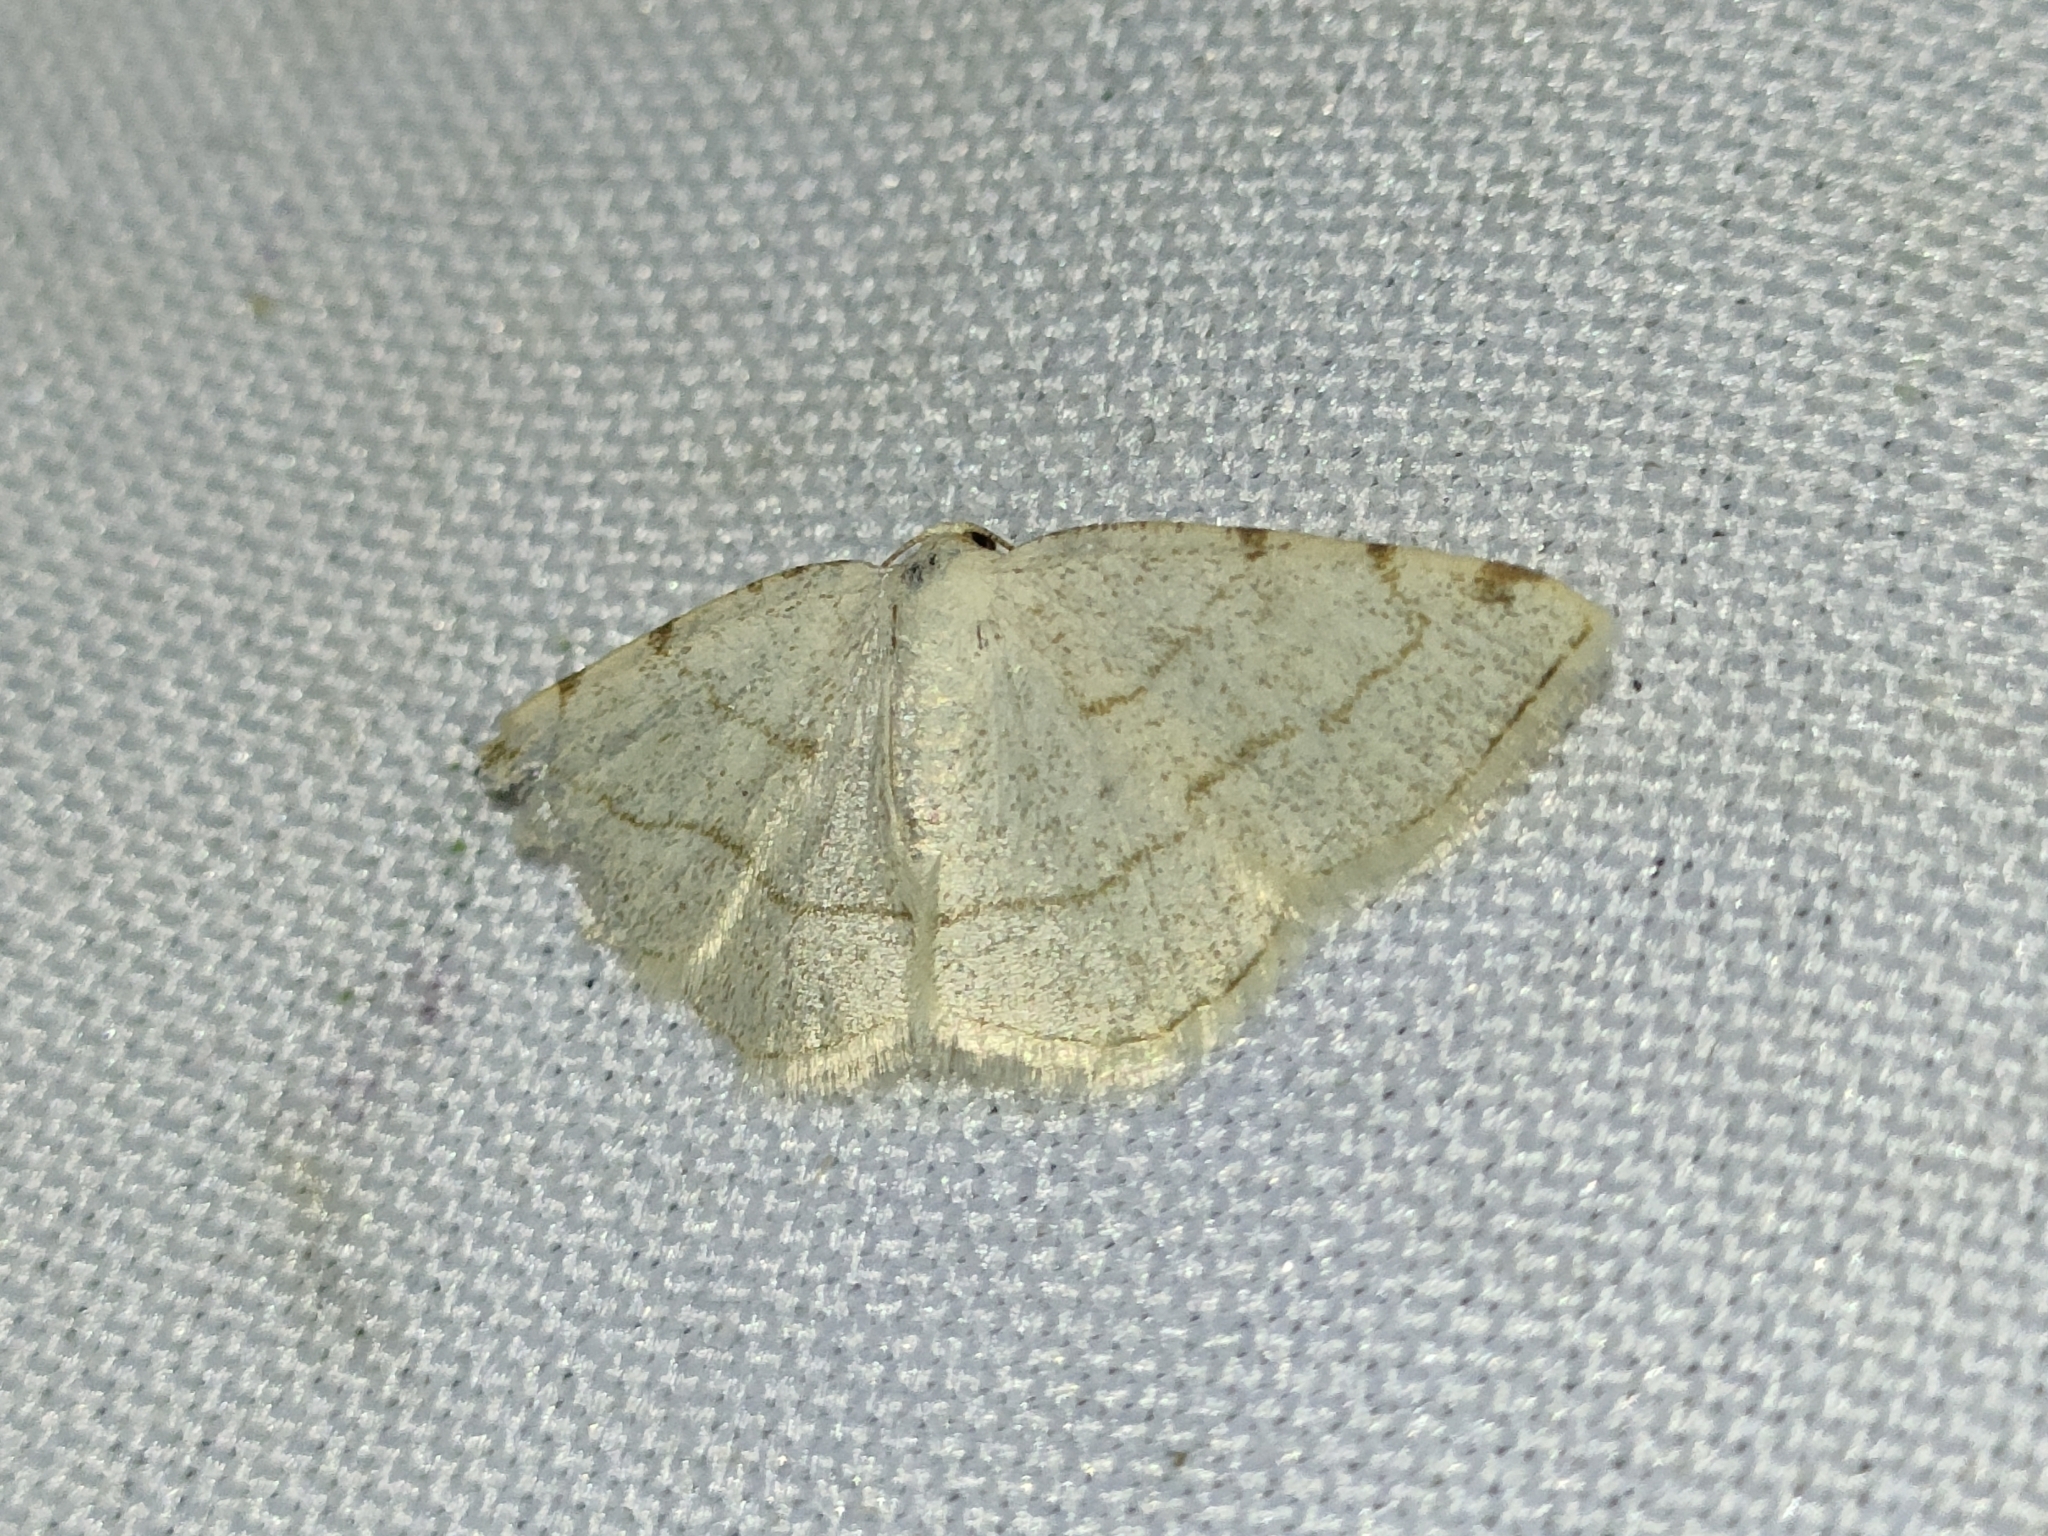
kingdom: Animalia
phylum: Arthropoda
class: Insecta
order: Lepidoptera
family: Geometridae
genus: Stegania
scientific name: Stegania trimaculata
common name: Dorset cream wave
